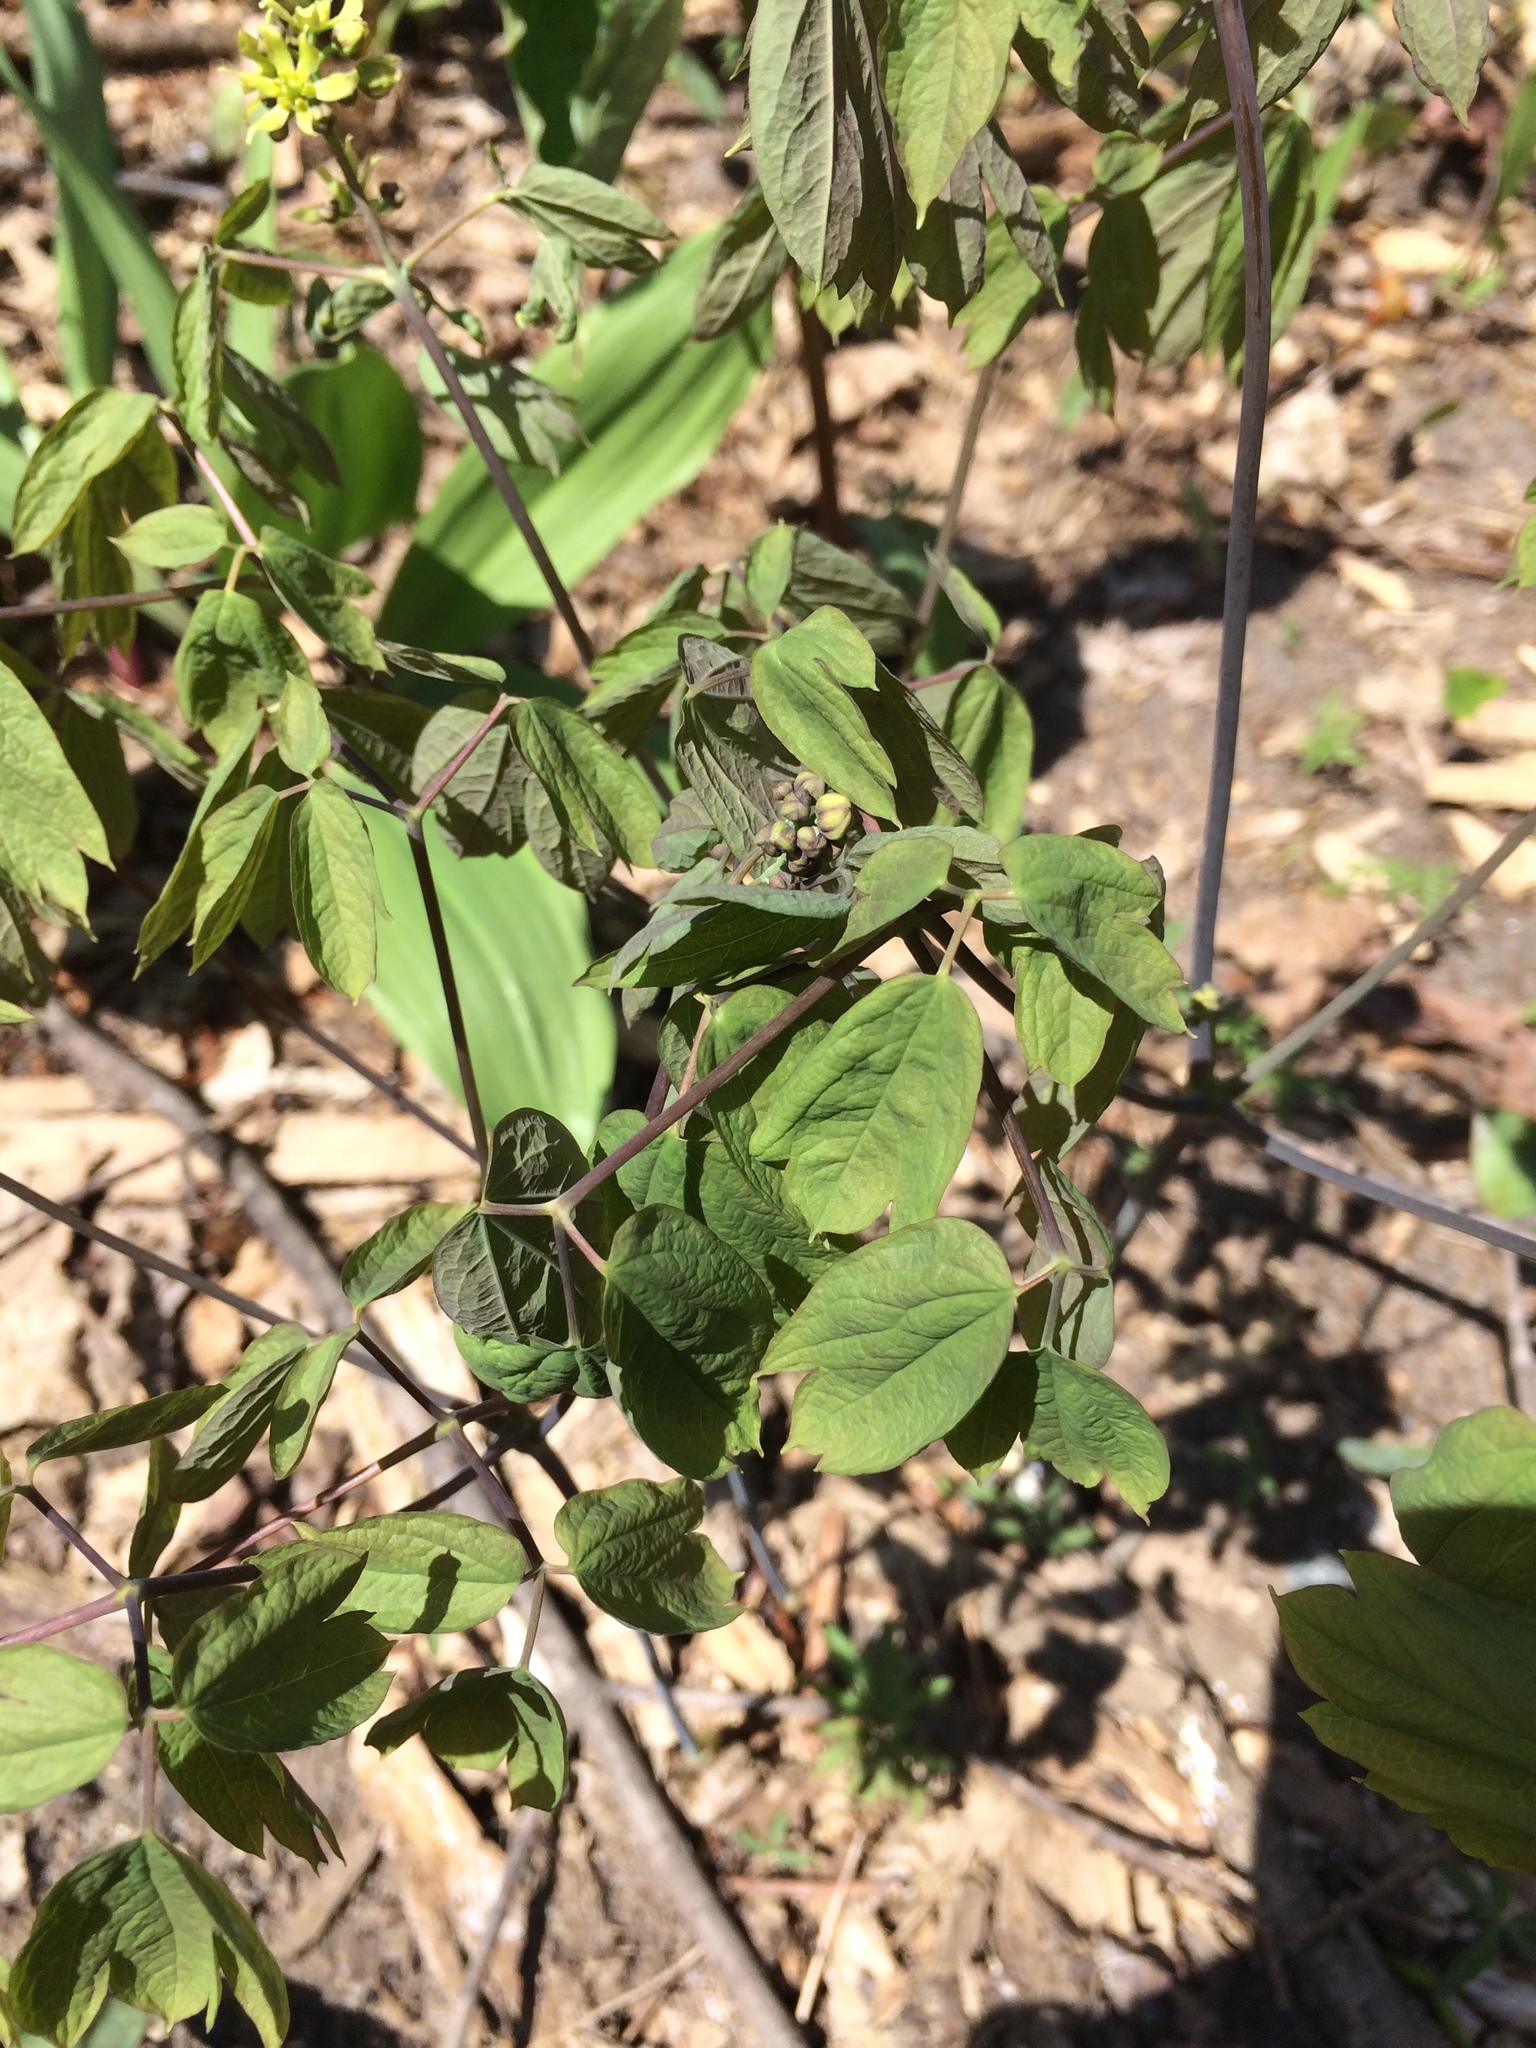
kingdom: Plantae
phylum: Tracheophyta
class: Magnoliopsida
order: Ranunculales
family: Berberidaceae
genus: Caulophyllum
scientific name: Caulophyllum thalictroides
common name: Blue cohosh
